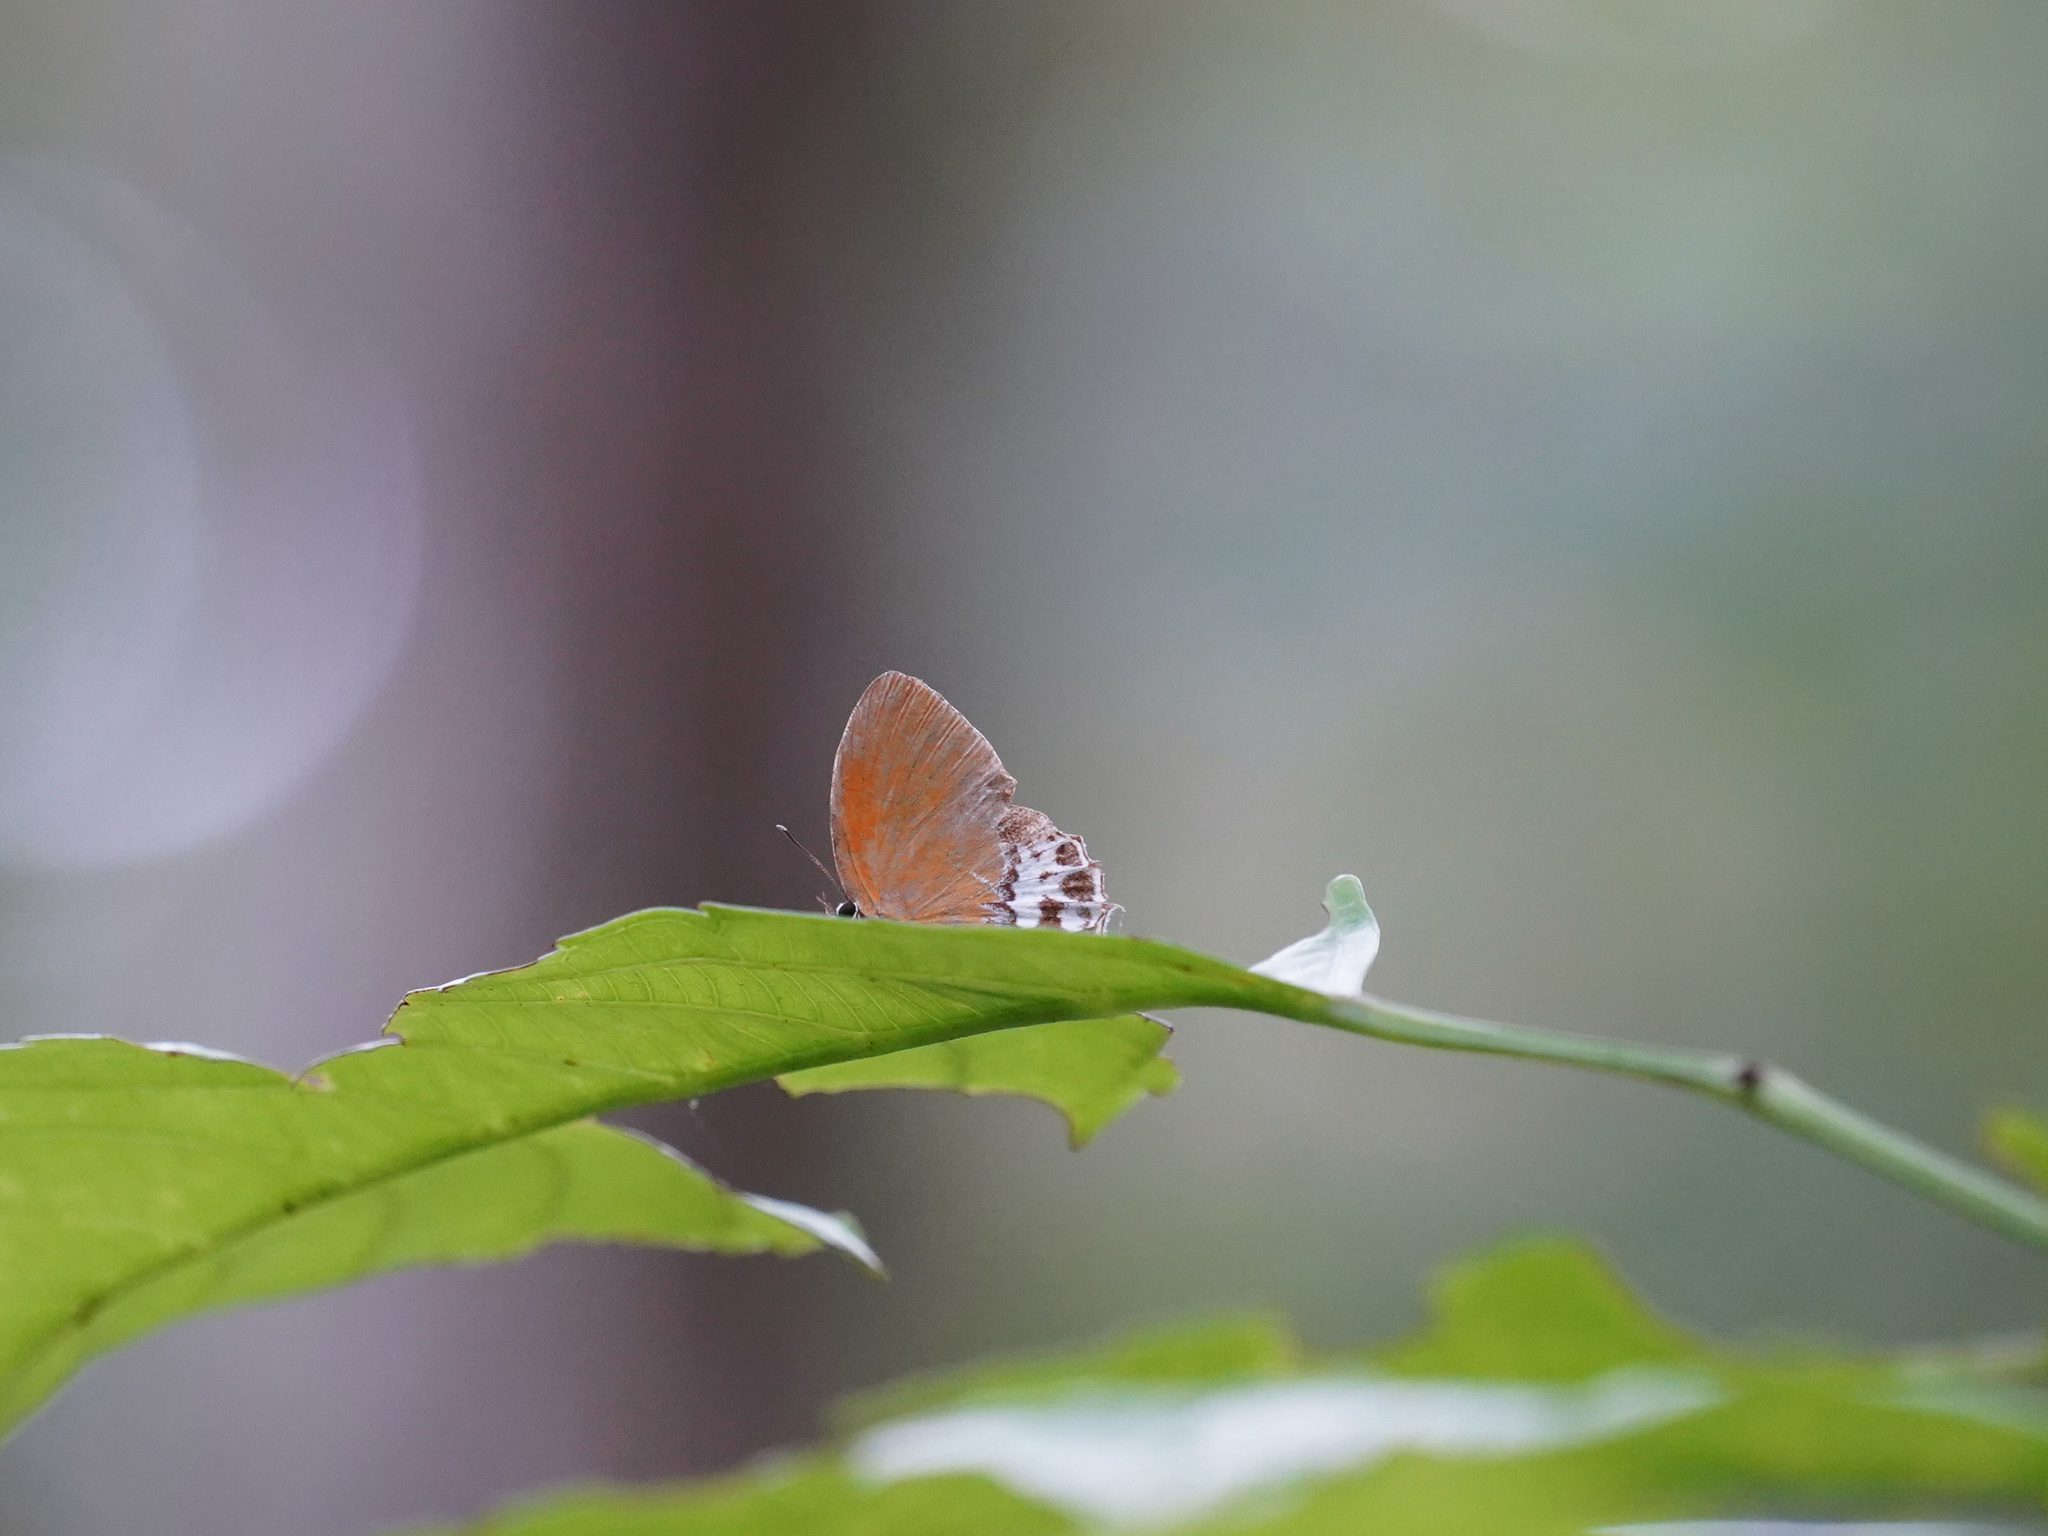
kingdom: Animalia
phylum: Arthropoda
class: Insecta
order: Lepidoptera
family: Lycaenidae
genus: Eooxylides
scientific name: Eooxylides tharis
